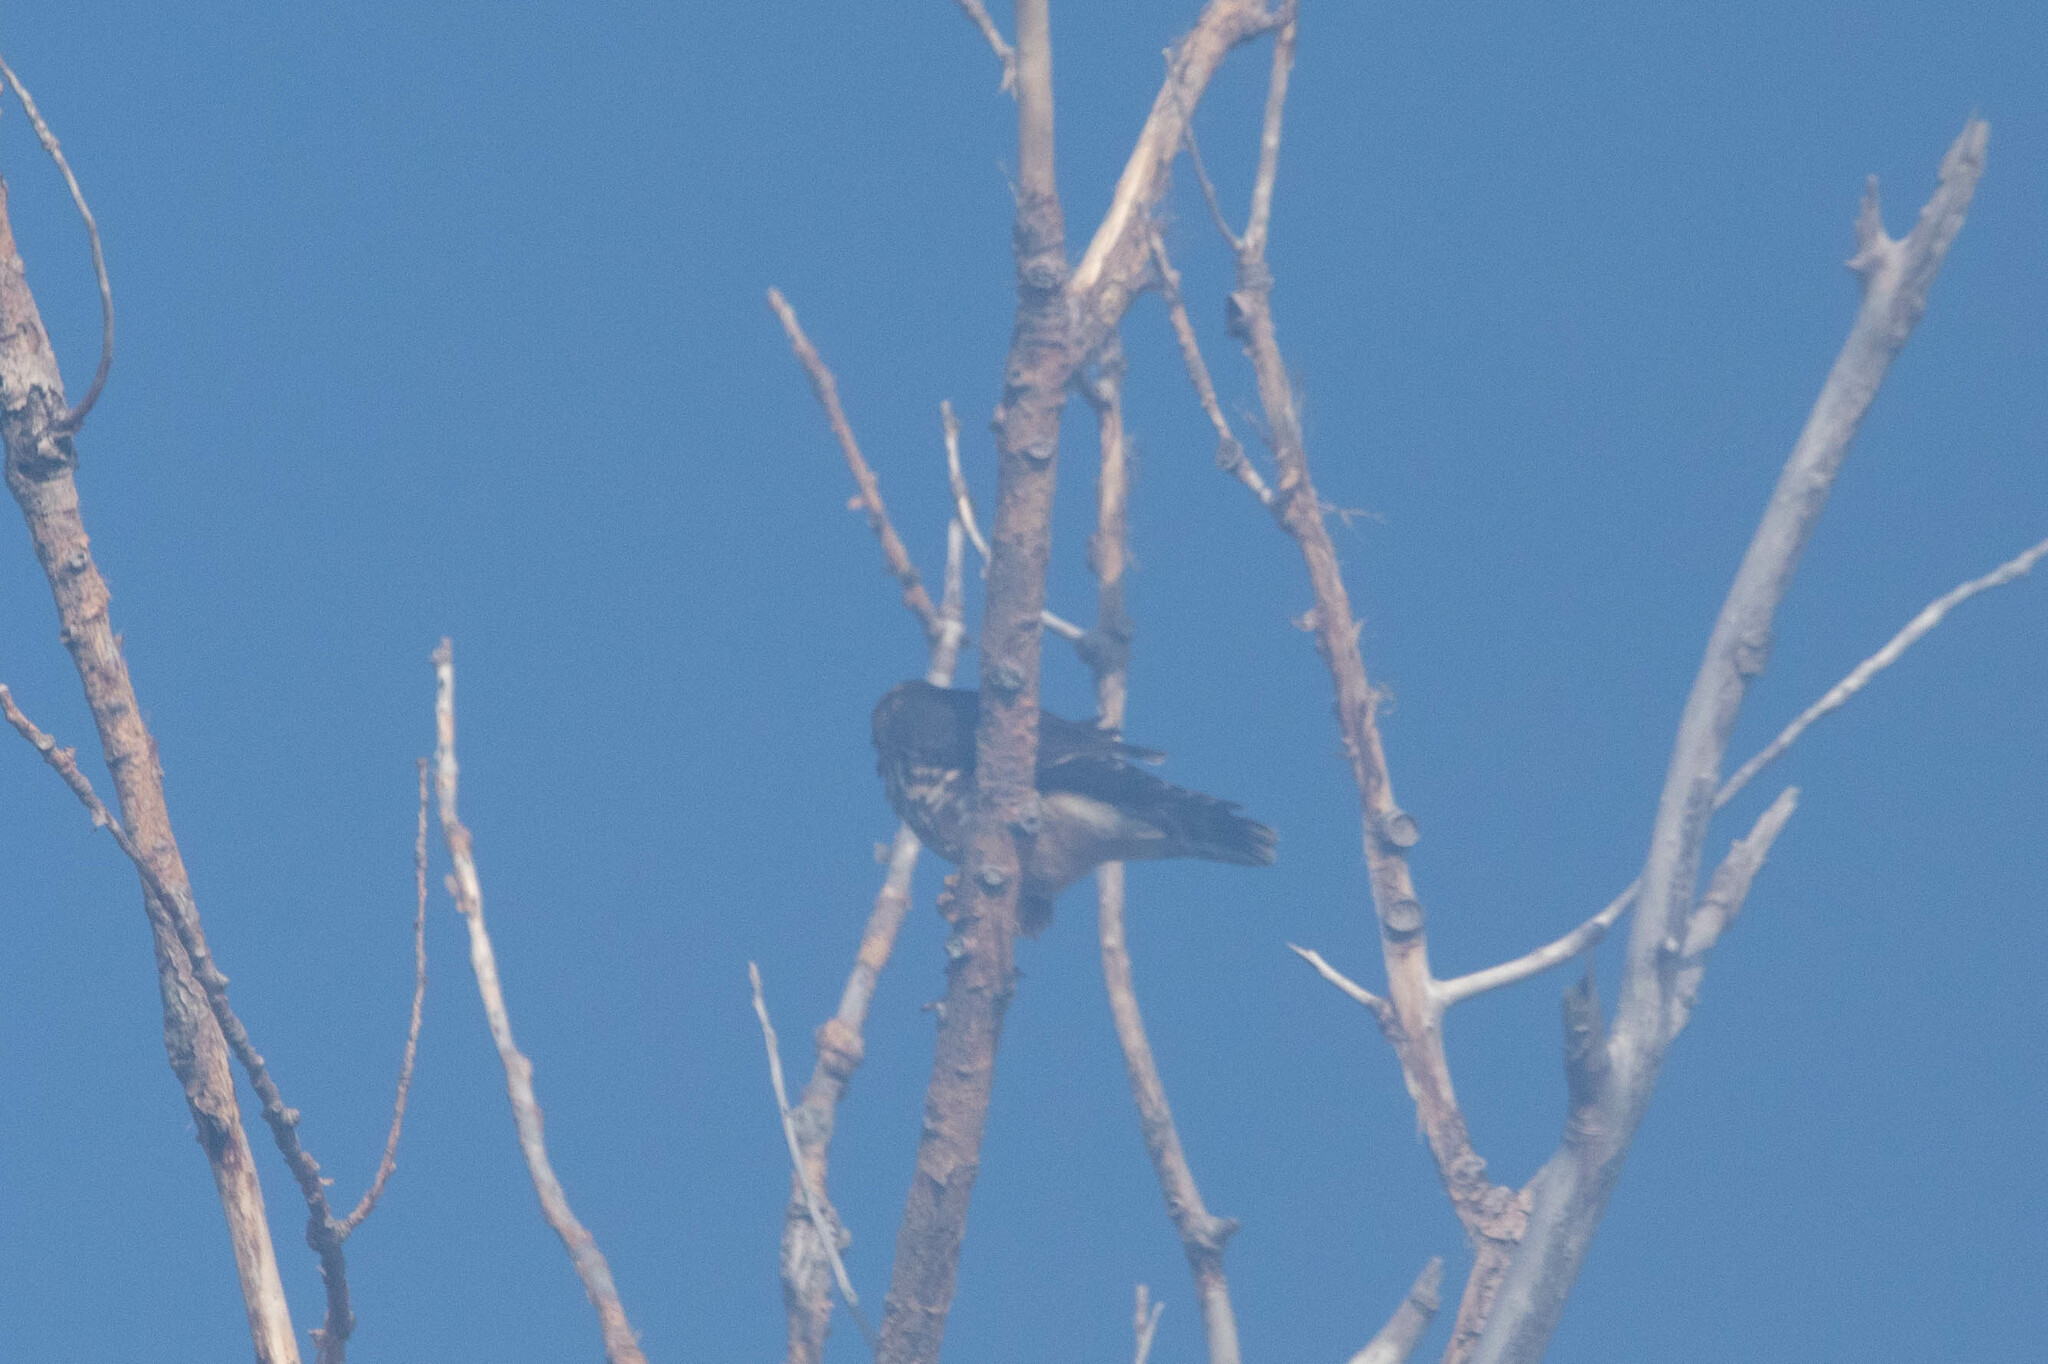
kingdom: Animalia
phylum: Chordata
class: Aves
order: Falconiformes
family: Falconidae
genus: Falco
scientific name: Falco columbarius
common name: Merlin
